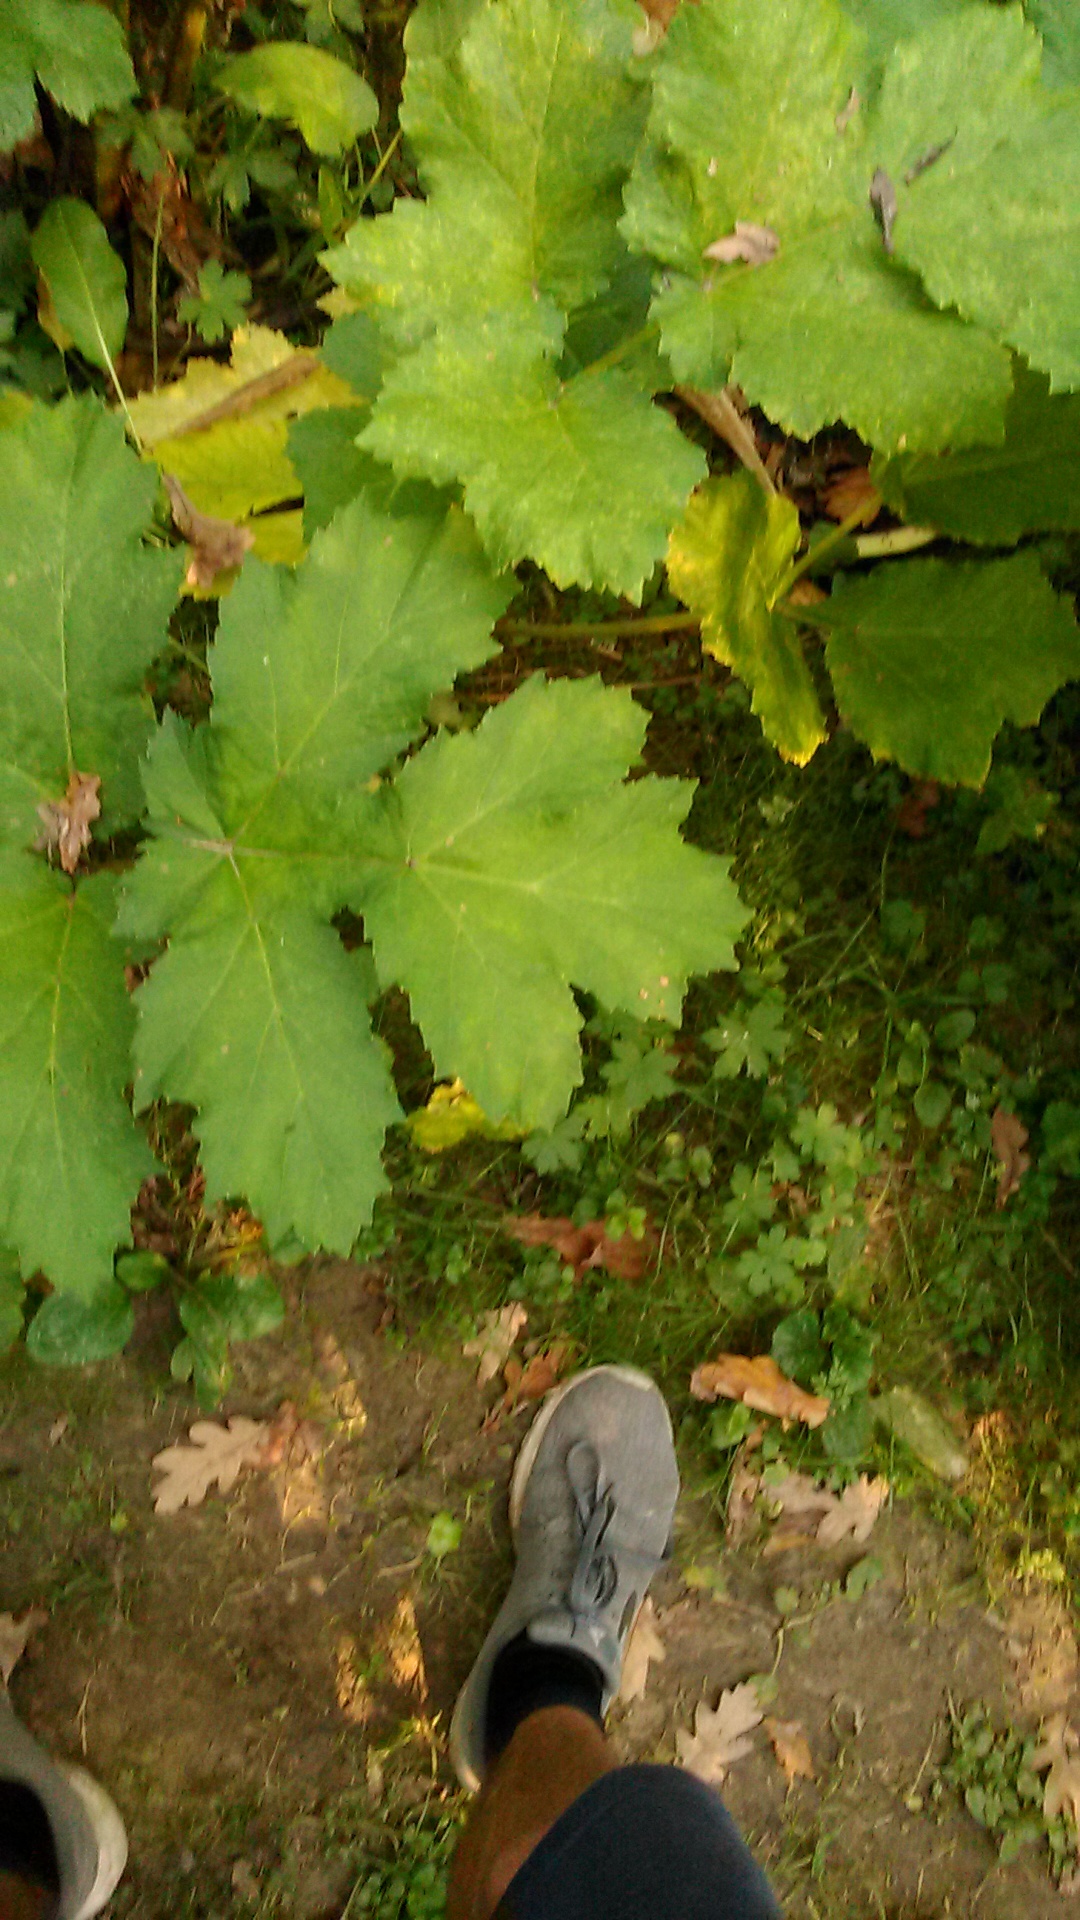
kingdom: Plantae
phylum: Tracheophyta
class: Magnoliopsida
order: Apiales
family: Apiaceae
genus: Heracleum
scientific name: Heracleum sosnowskyi
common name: Sosnowsky's hogweed
